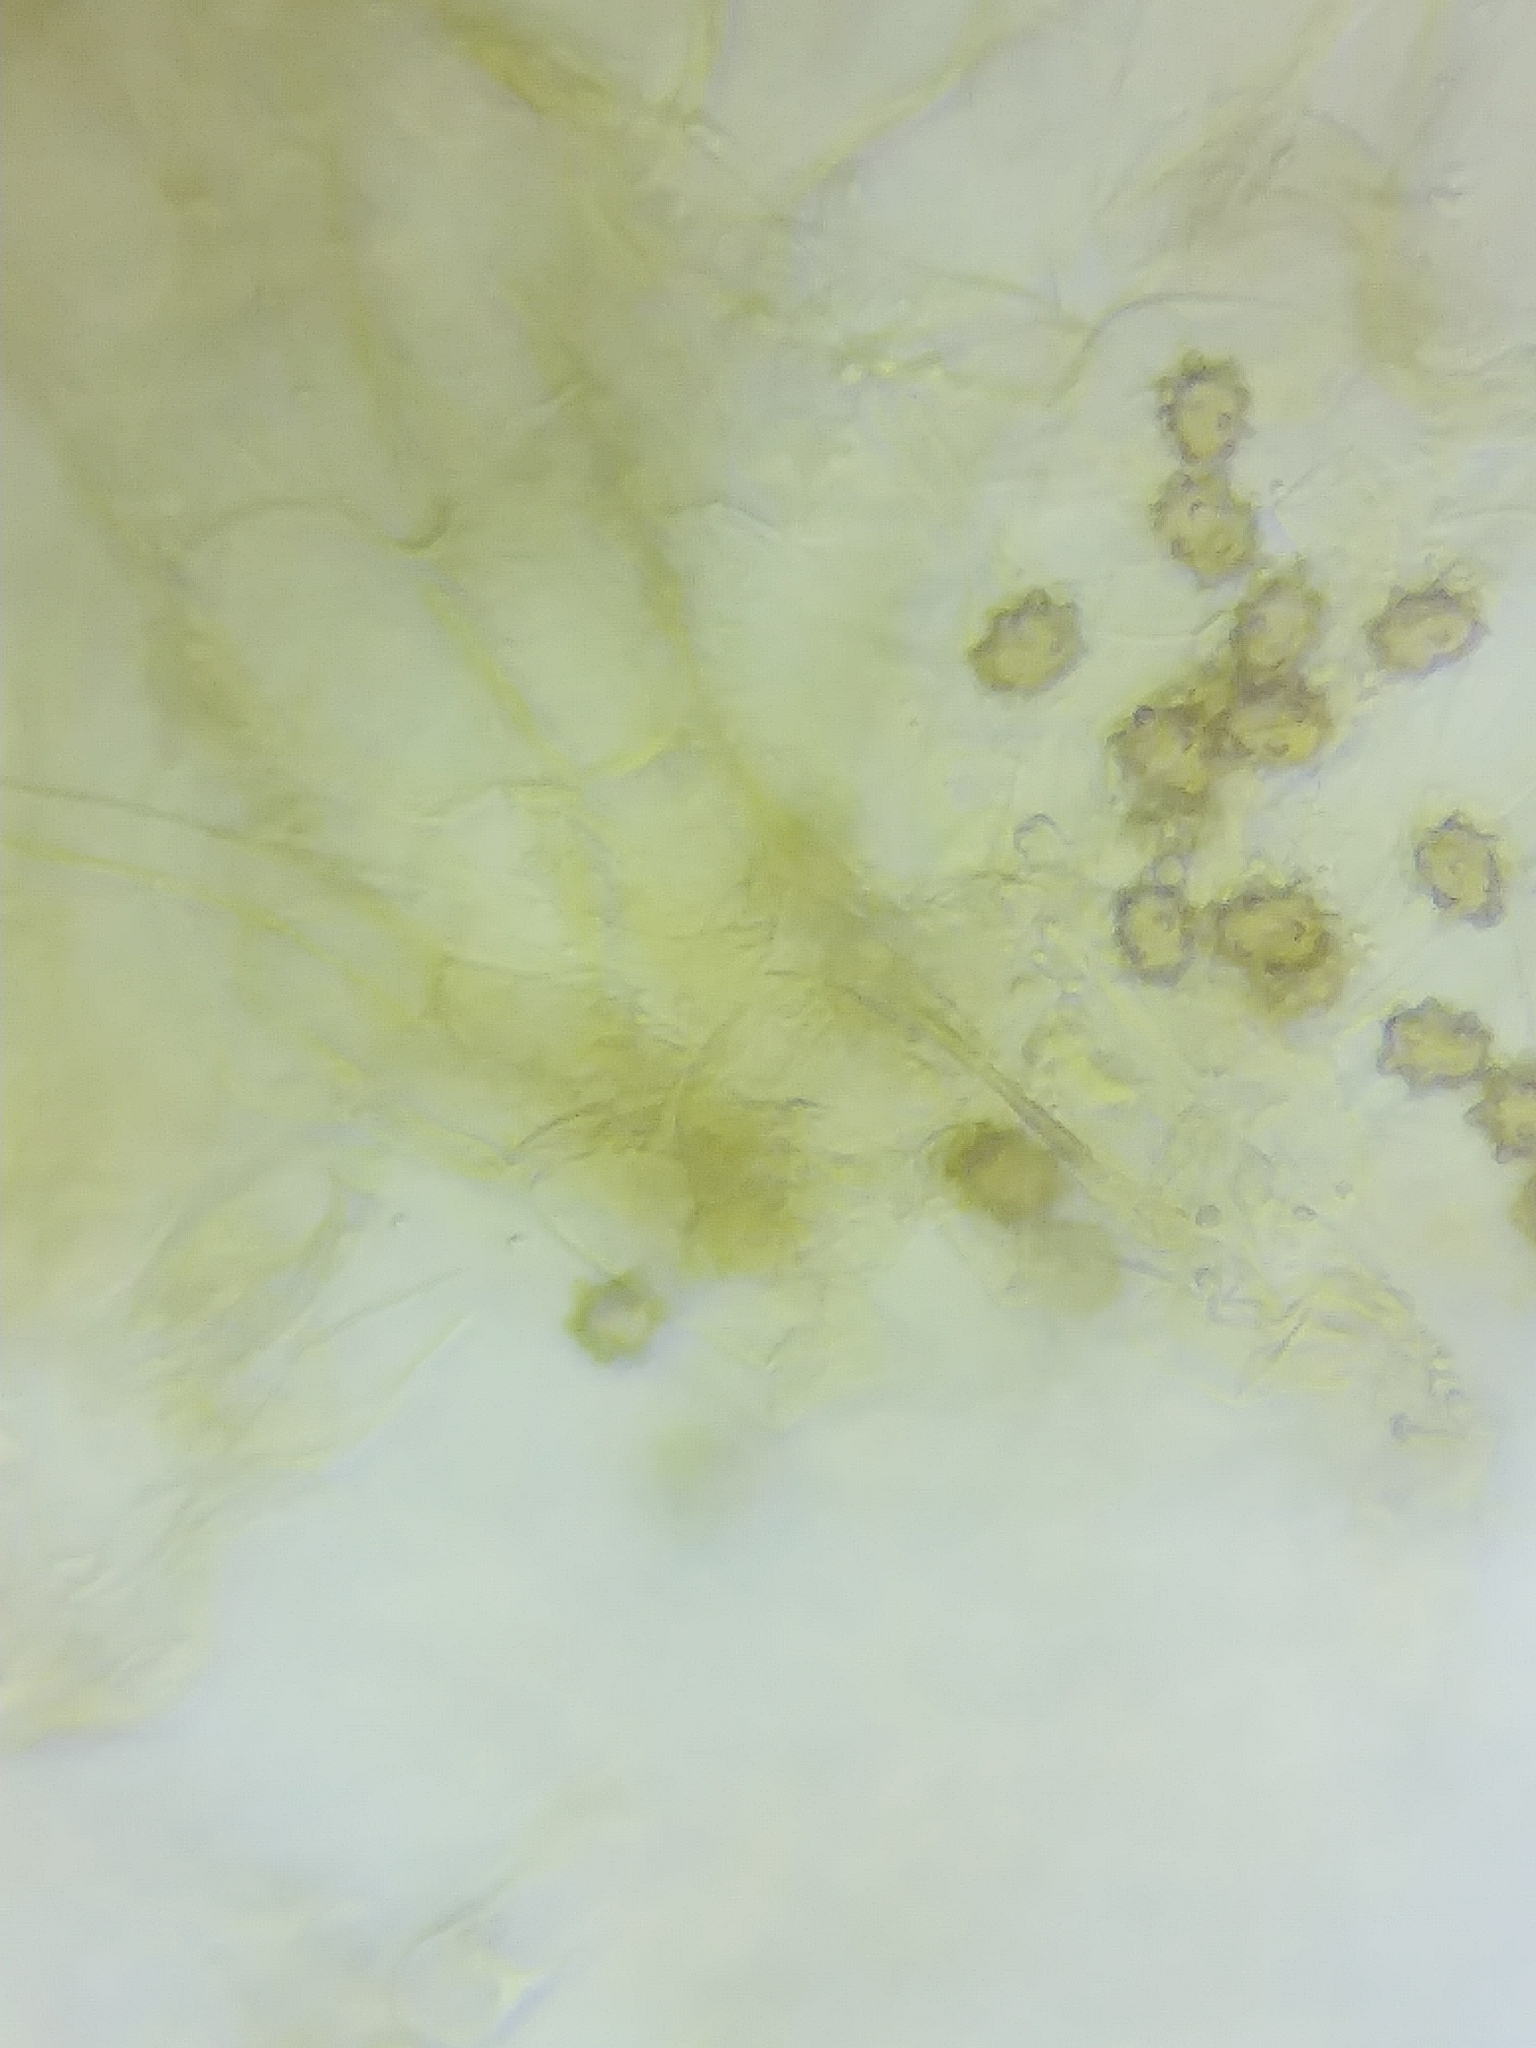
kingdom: Fungi
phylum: Basidiomycota
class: Agaricomycetes
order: Agaricales
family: Inocybaceae
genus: Inocybe
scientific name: Inocybe stellatospora
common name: Woolly fibrecap
